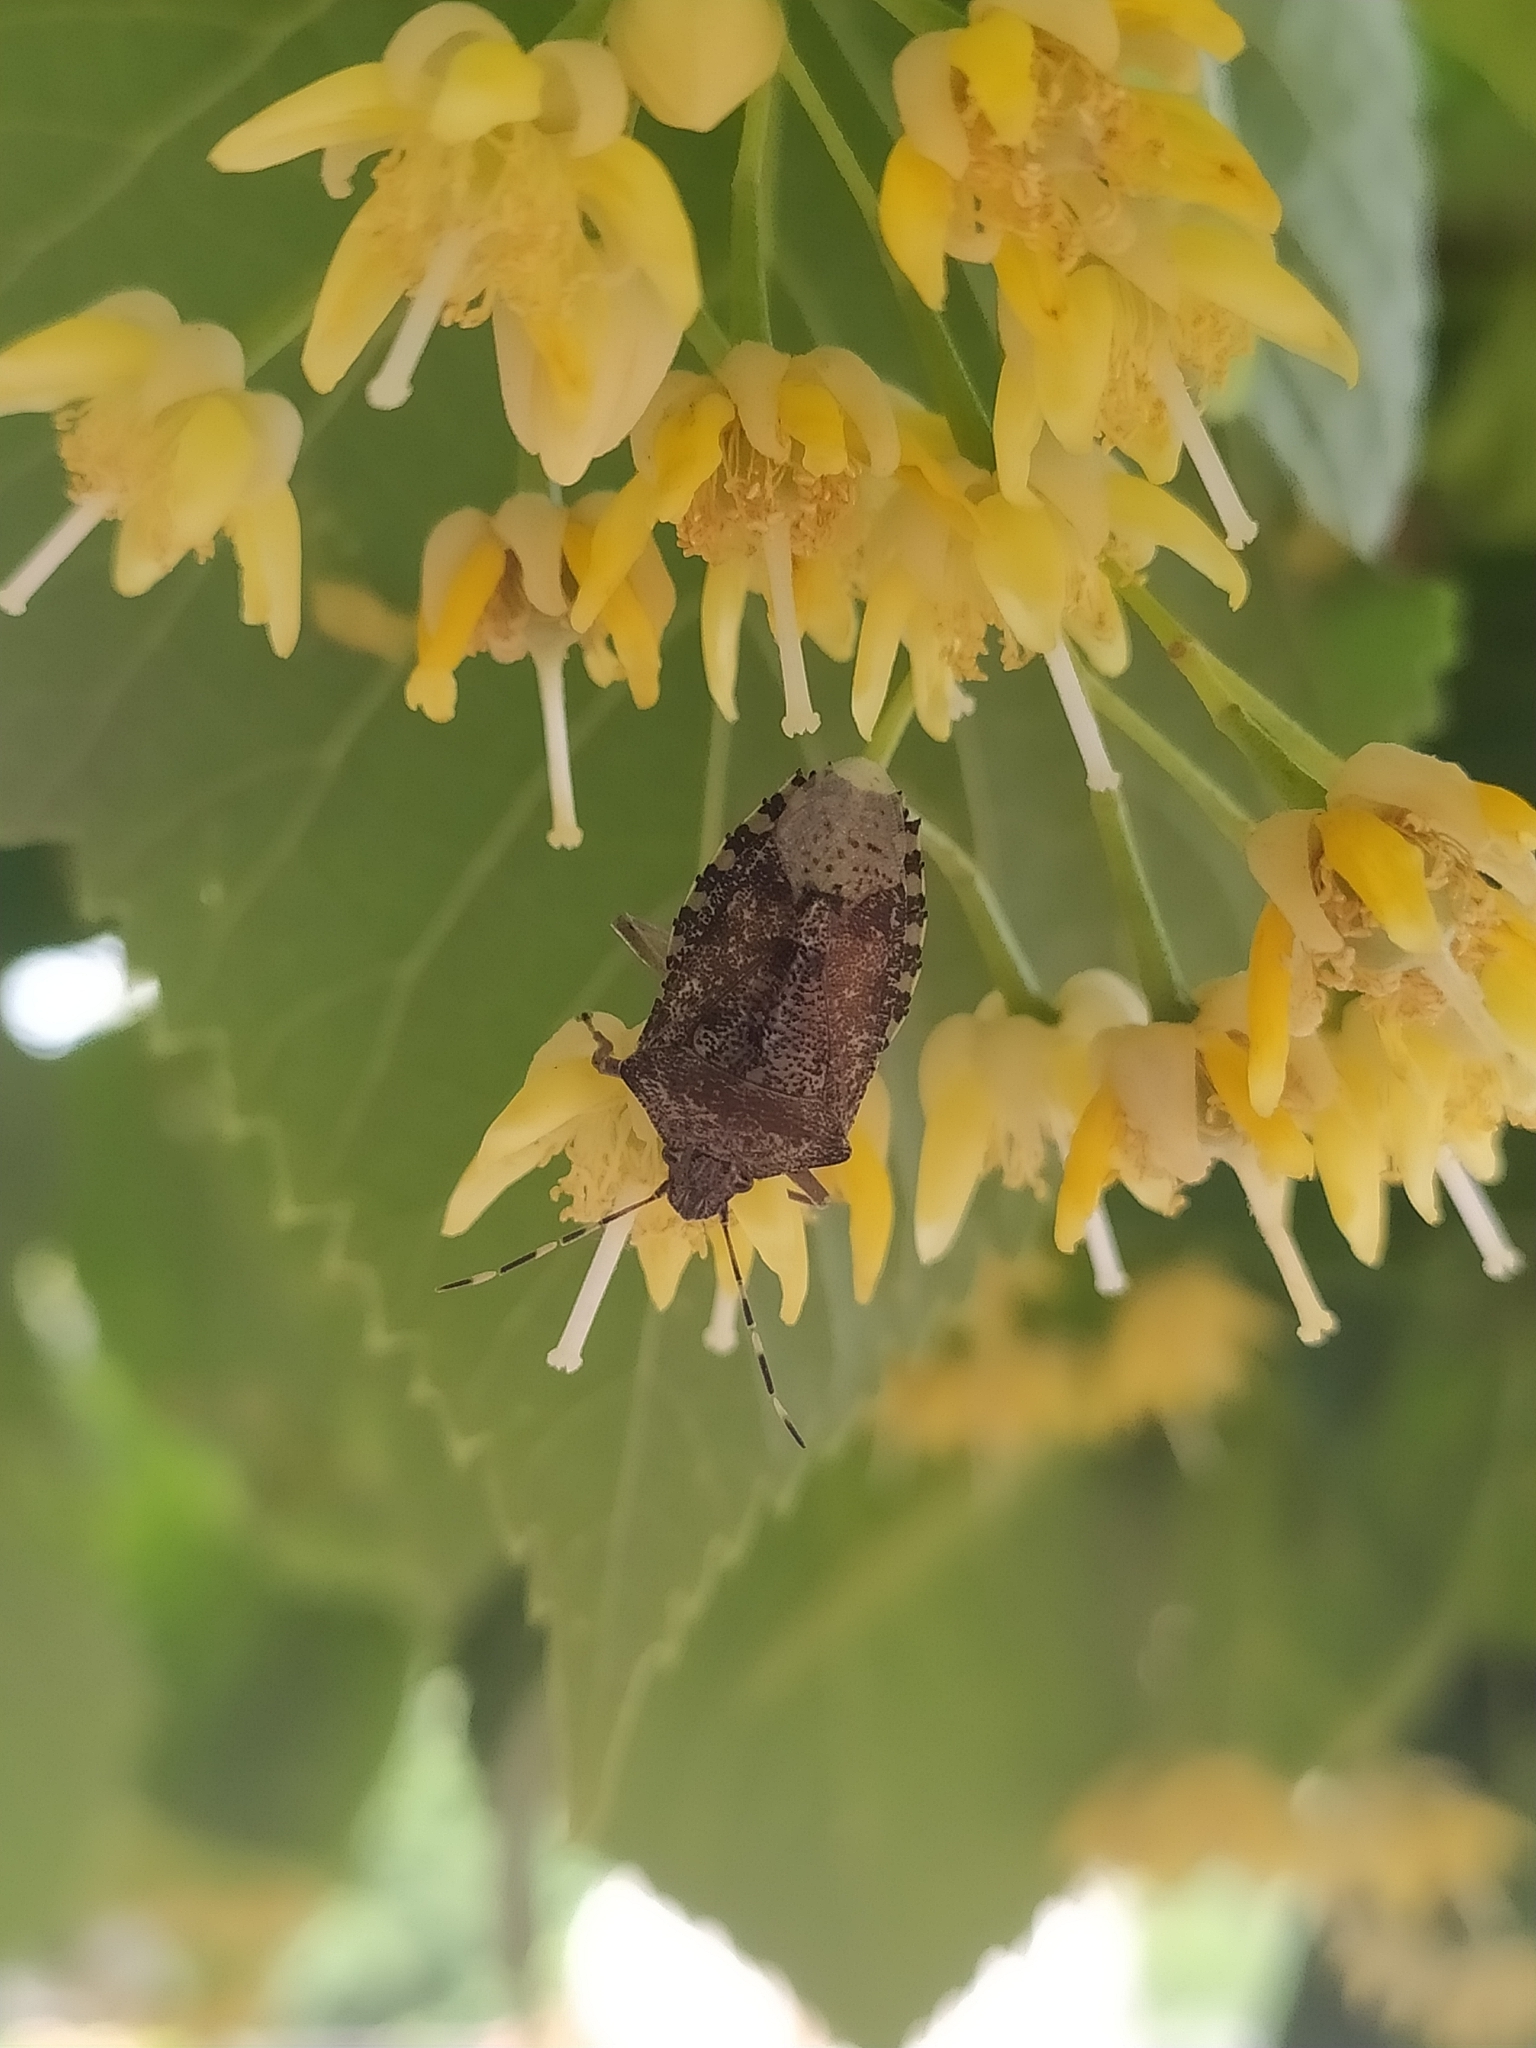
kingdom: Animalia
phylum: Arthropoda
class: Insecta
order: Hemiptera
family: Pentatomidae
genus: Rhaphigaster
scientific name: Rhaphigaster nebulosa
